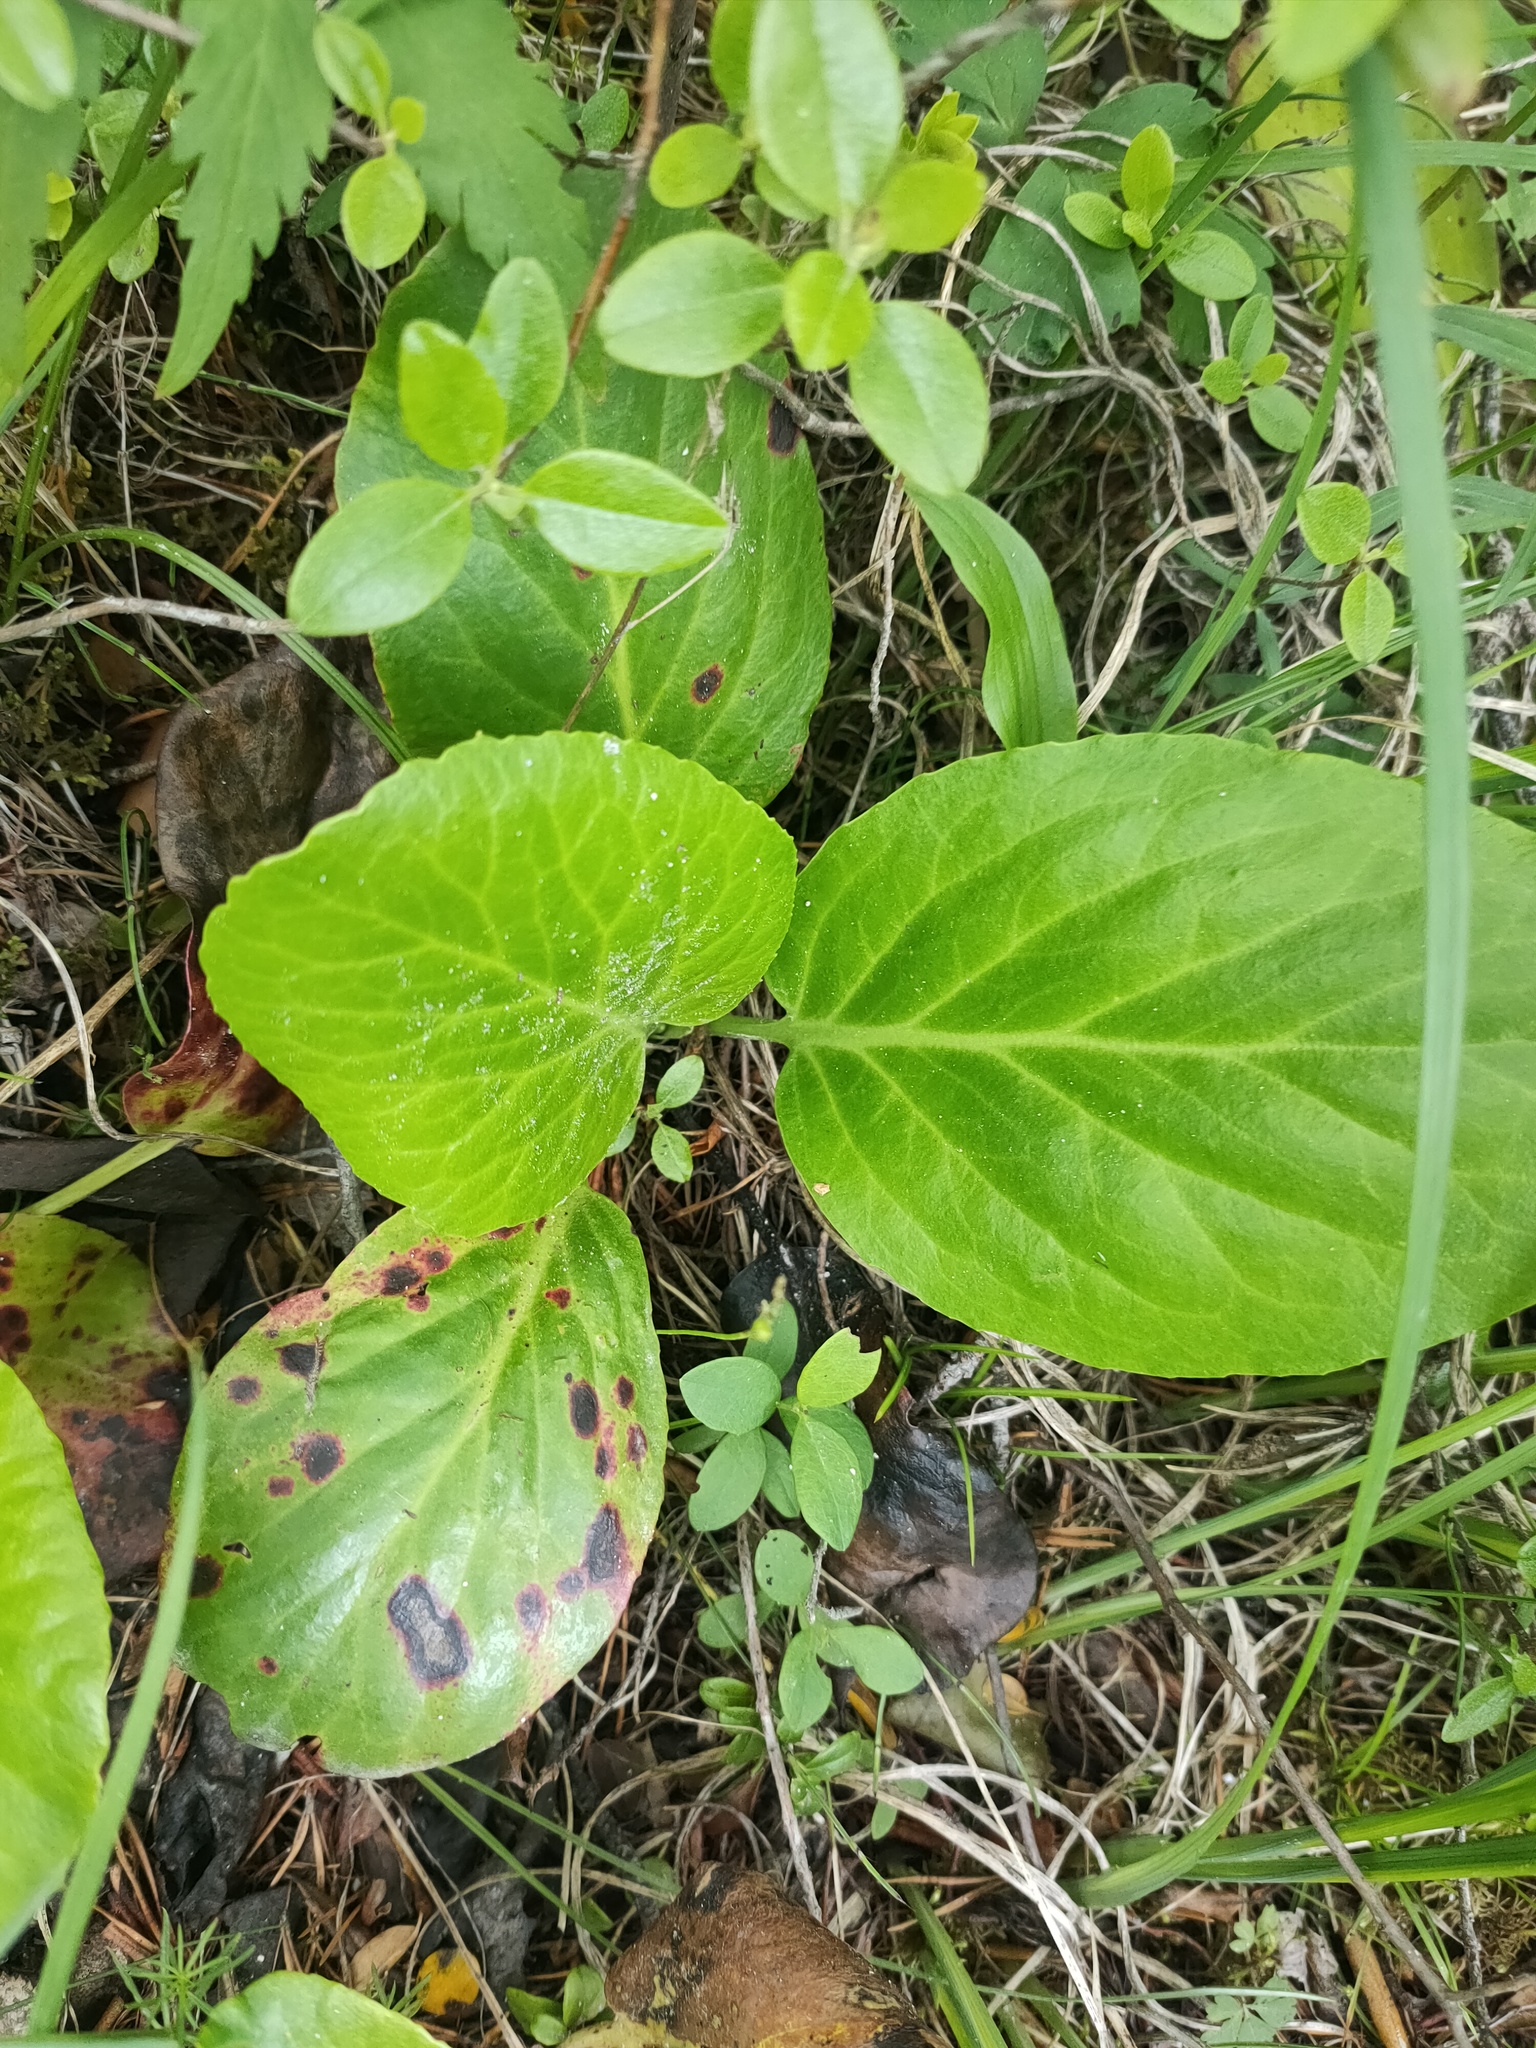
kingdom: Plantae
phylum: Tracheophyta
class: Magnoliopsida
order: Saxifragales
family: Saxifragaceae
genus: Bergenia
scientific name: Bergenia crassifolia
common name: Elephant-ears
